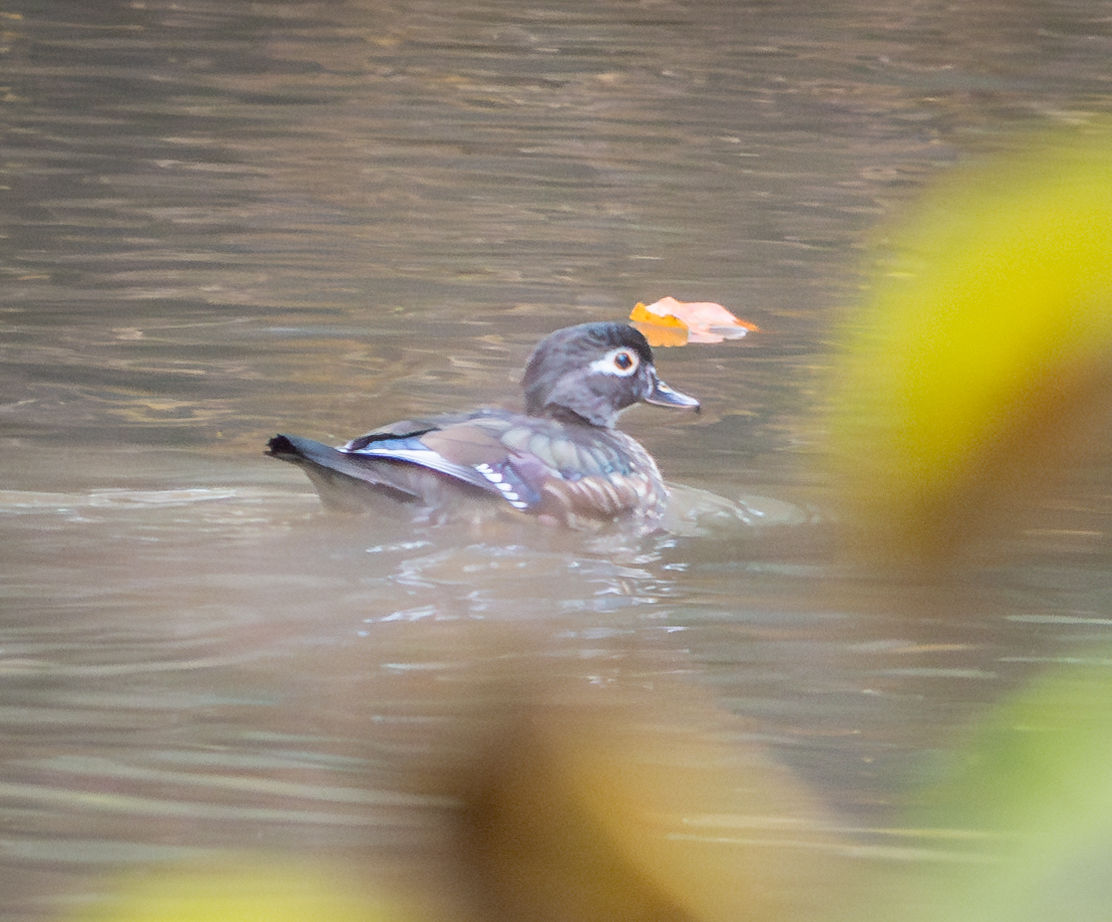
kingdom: Animalia
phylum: Chordata
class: Aves
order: Anseriformes
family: Anatidae
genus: Aix
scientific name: Aix sponsa
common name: Wood duck
